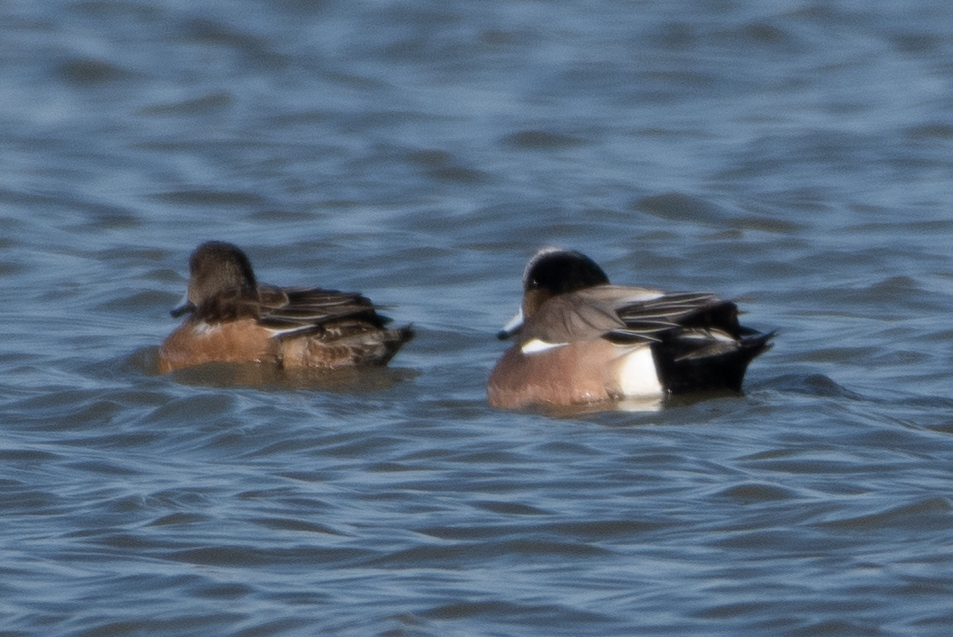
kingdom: Animalia
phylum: Chordata
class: Aves
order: Anseriformes
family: Anatidae
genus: Mareca
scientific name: Mareca americana
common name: American wigeon
